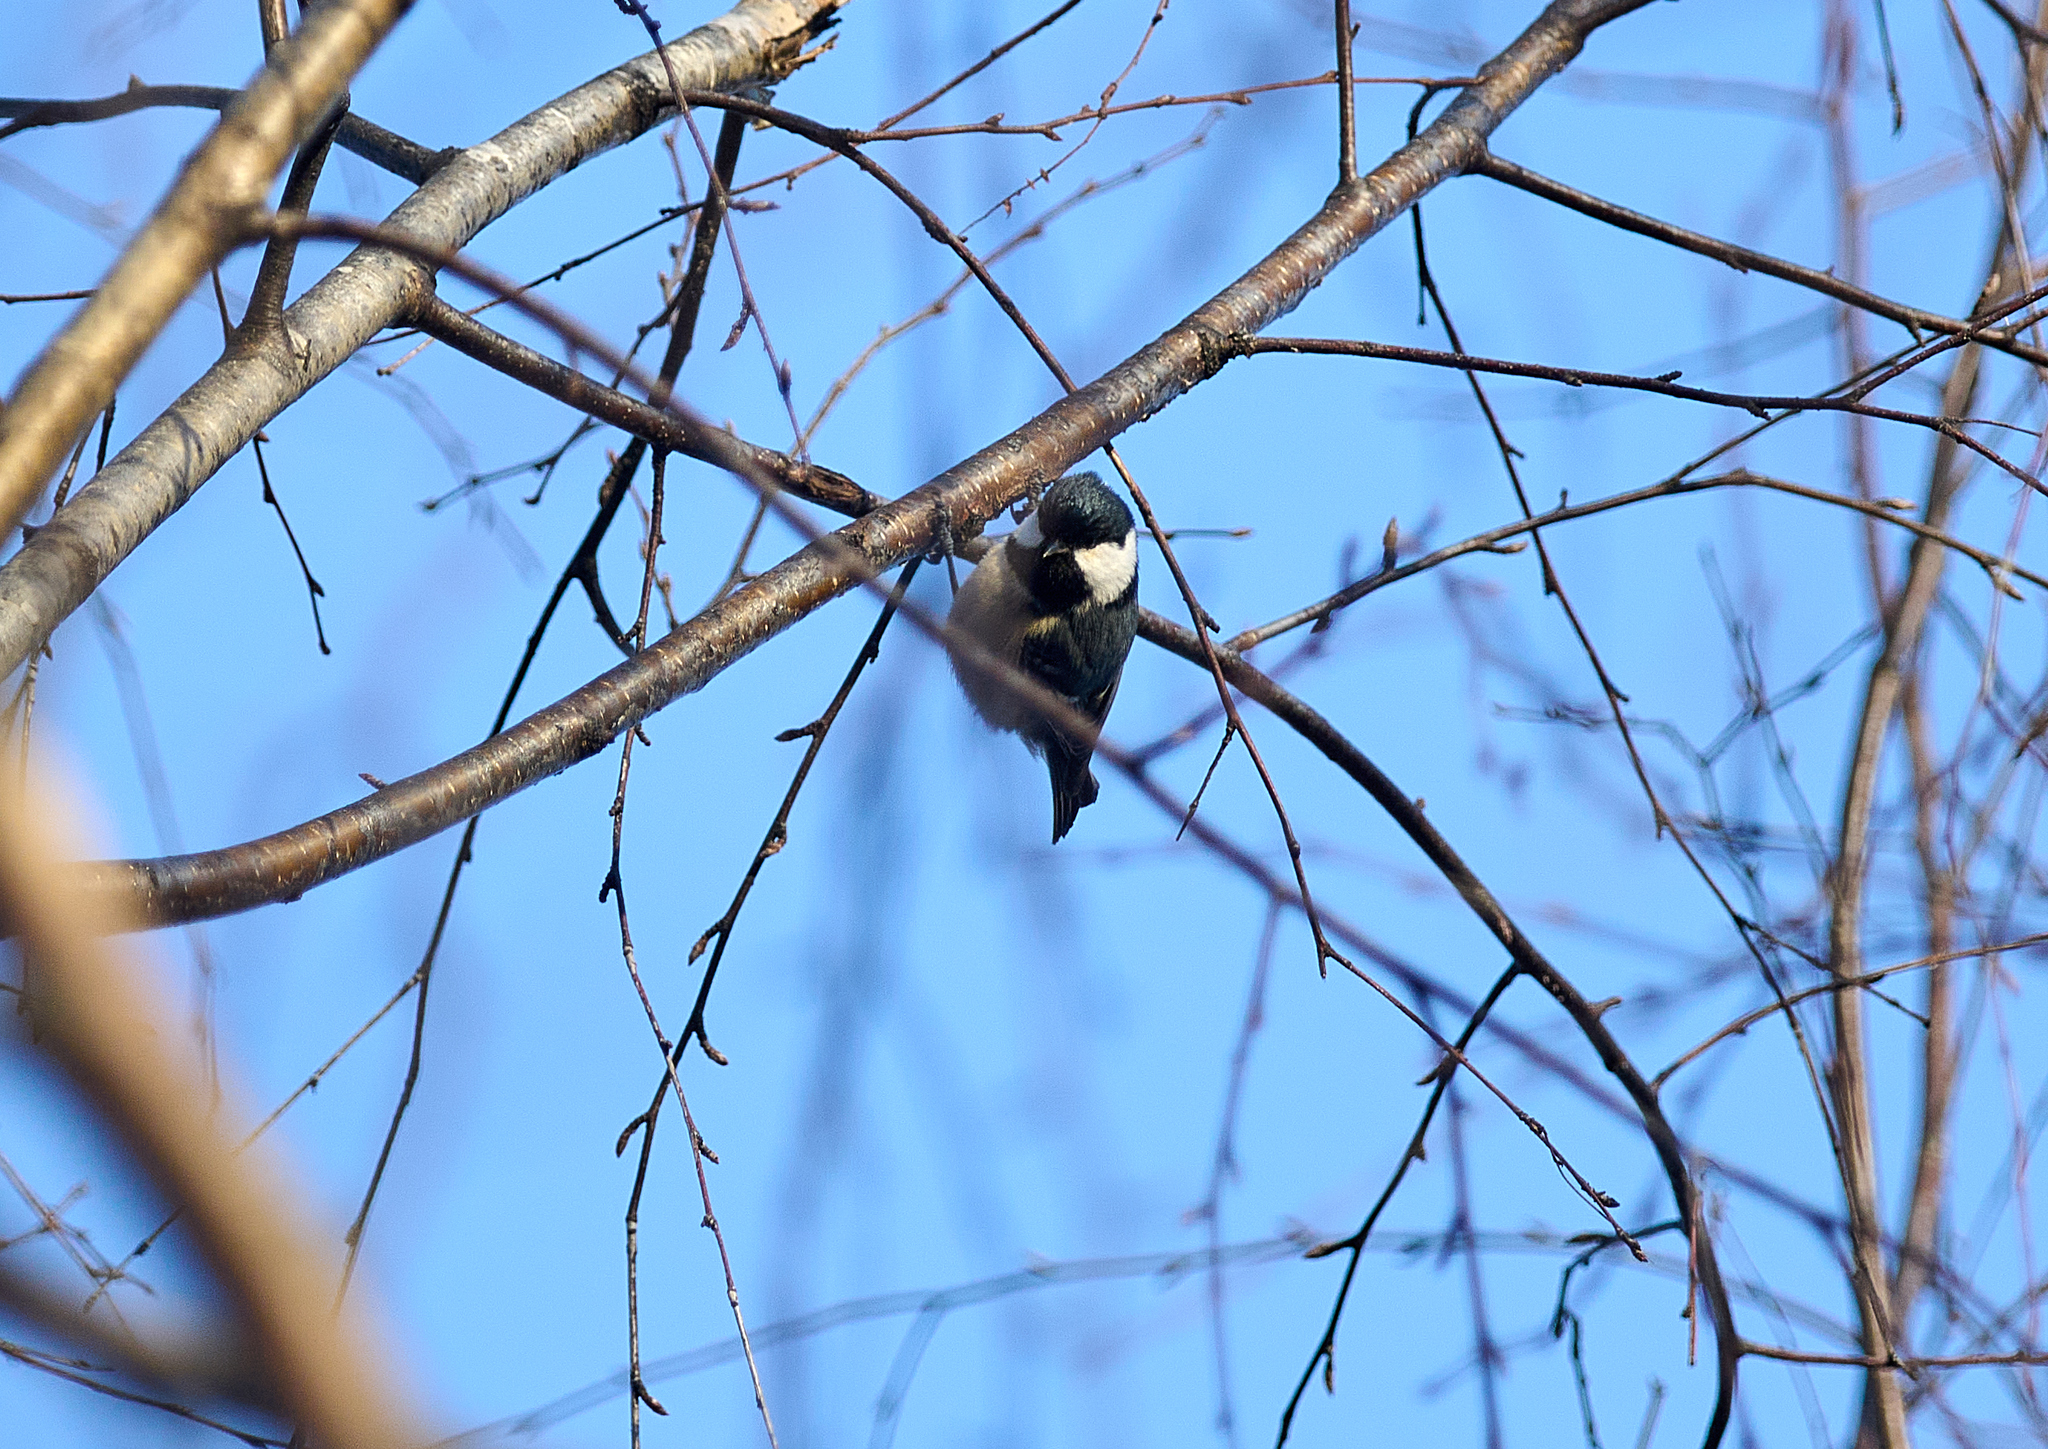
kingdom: Animalia
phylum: Chordata
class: Aves
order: Passeriformes
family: Paridae
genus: Periparus
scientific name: Periparus ater
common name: Coal tit
